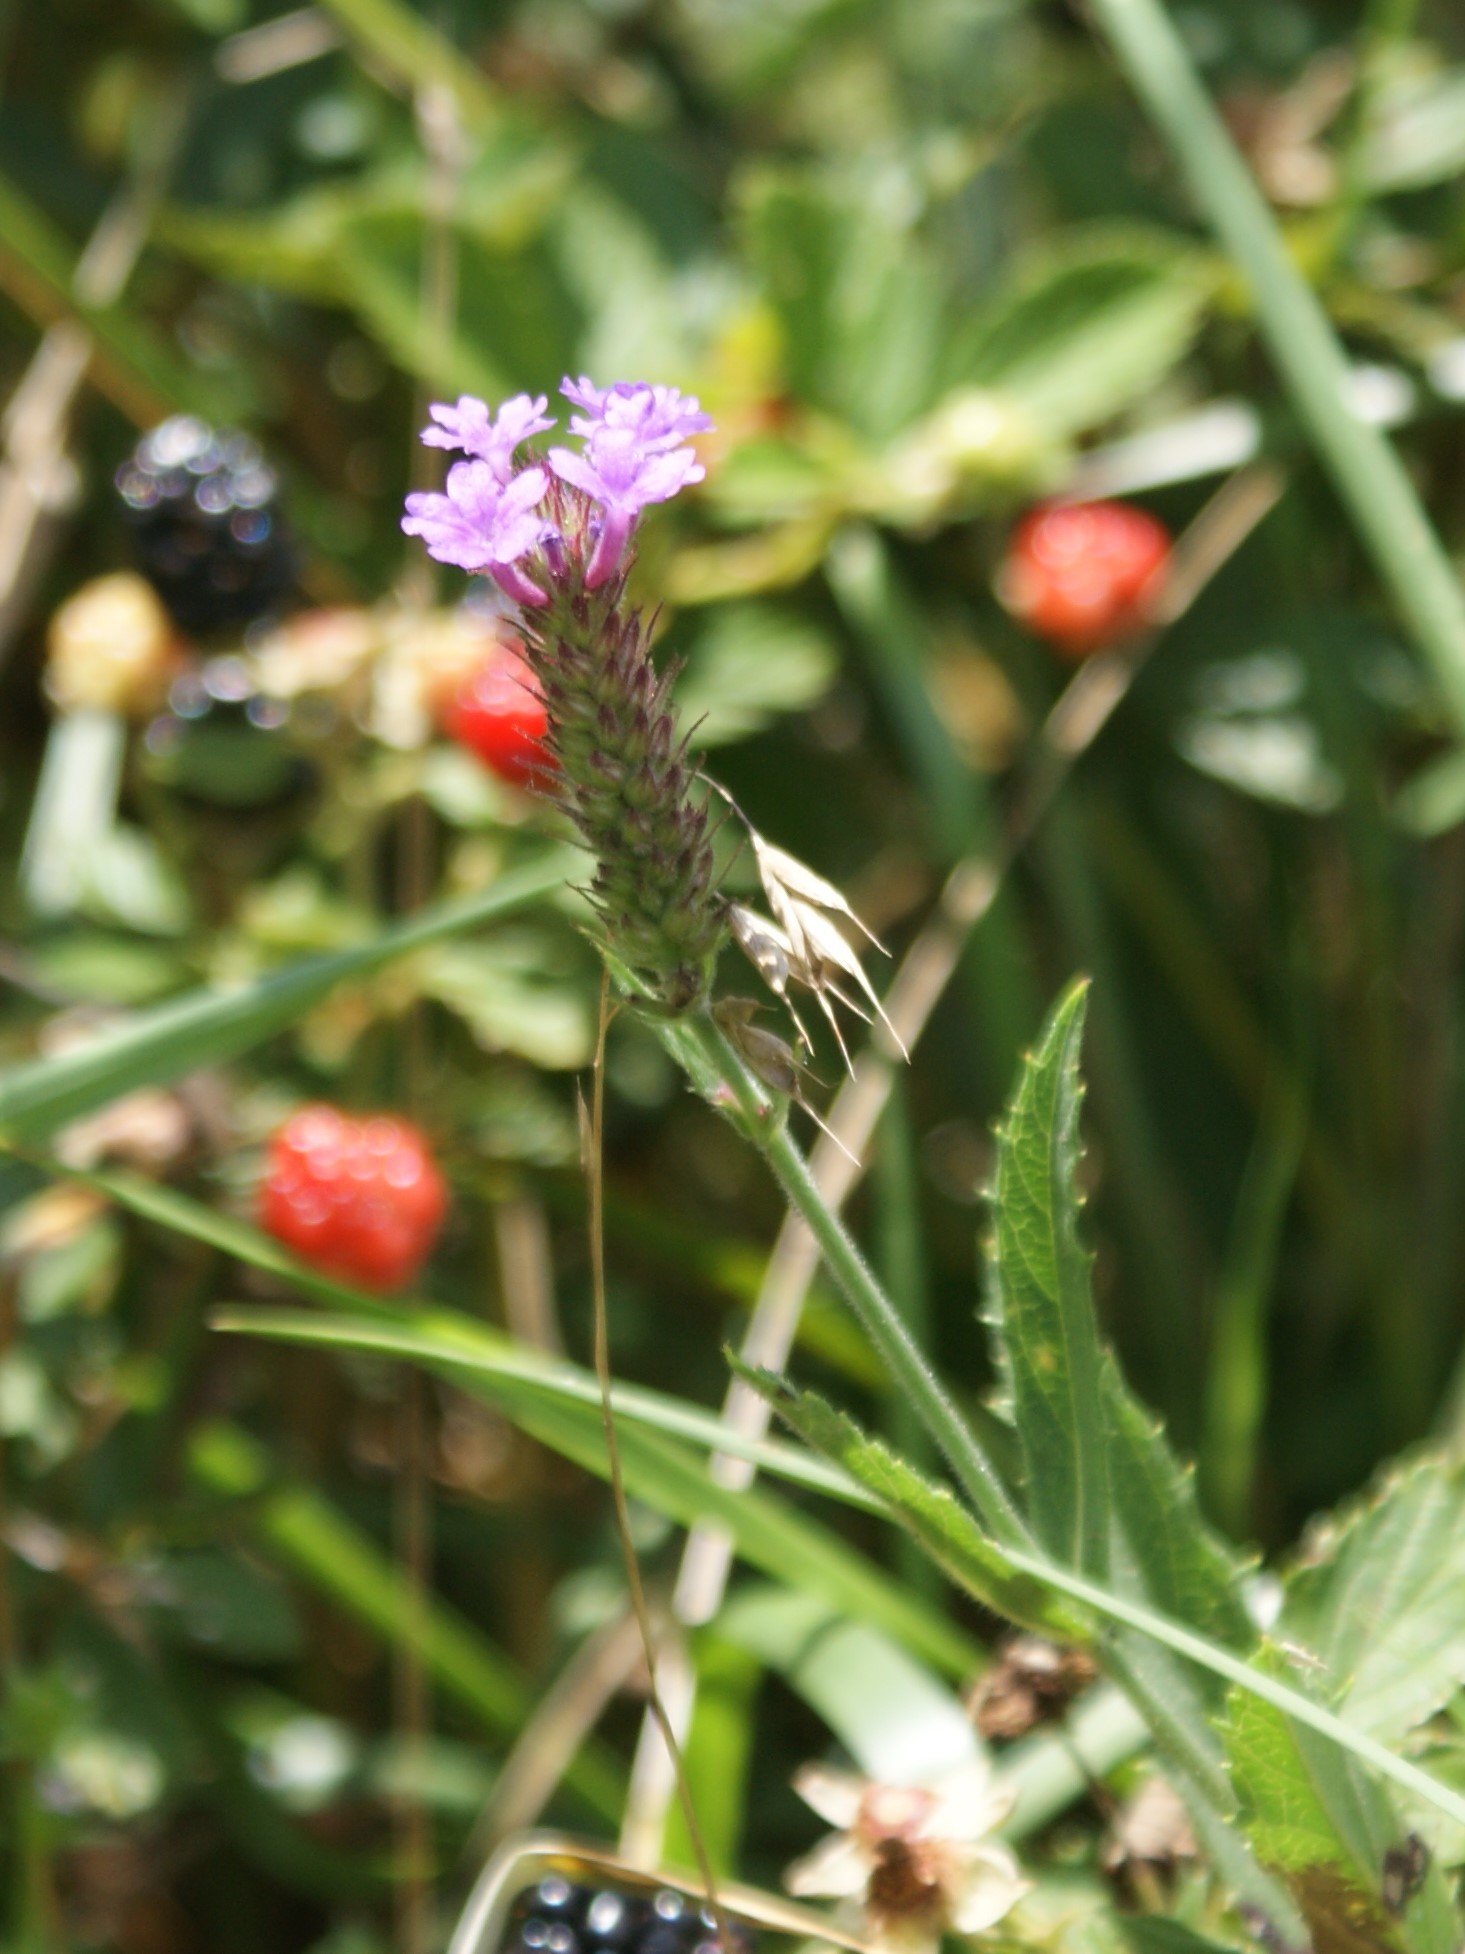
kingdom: Plantae
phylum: Tracheophyta
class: Magnoliopsida
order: Lamiales
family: Verbenaceae
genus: Verbena
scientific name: Verbena rigida
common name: Slender vervain
